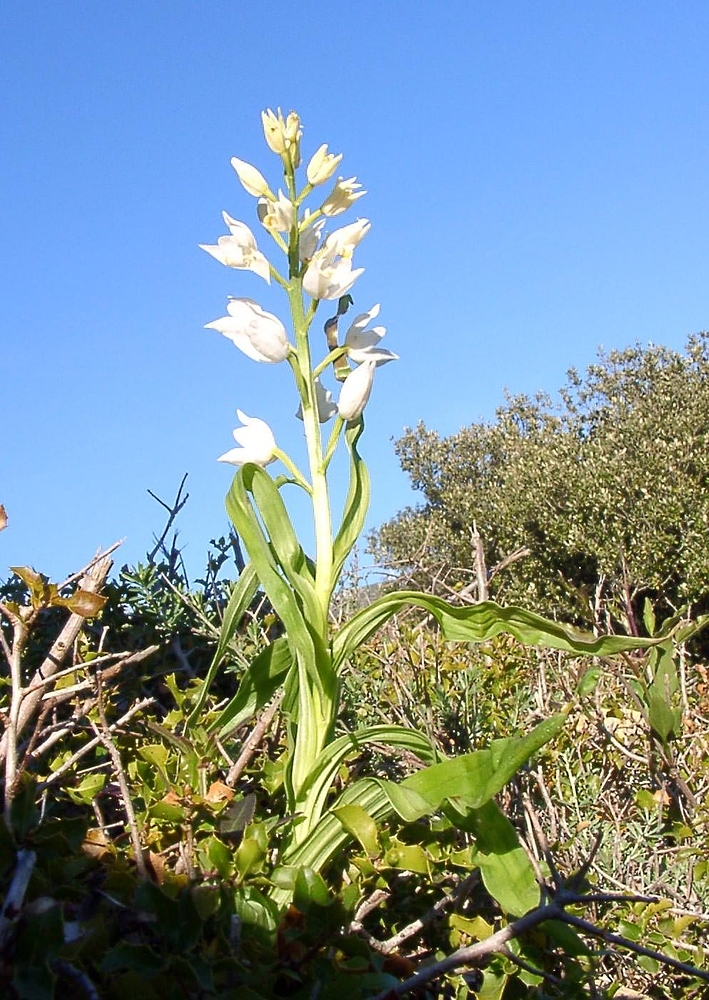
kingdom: Plantae
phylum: Tracheophyta
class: Liliopsida
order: Asparagales
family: Orchidaceae
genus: Cephalanthera
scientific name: Cephalanthera longifolia
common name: Narrow-leaved helleborine
